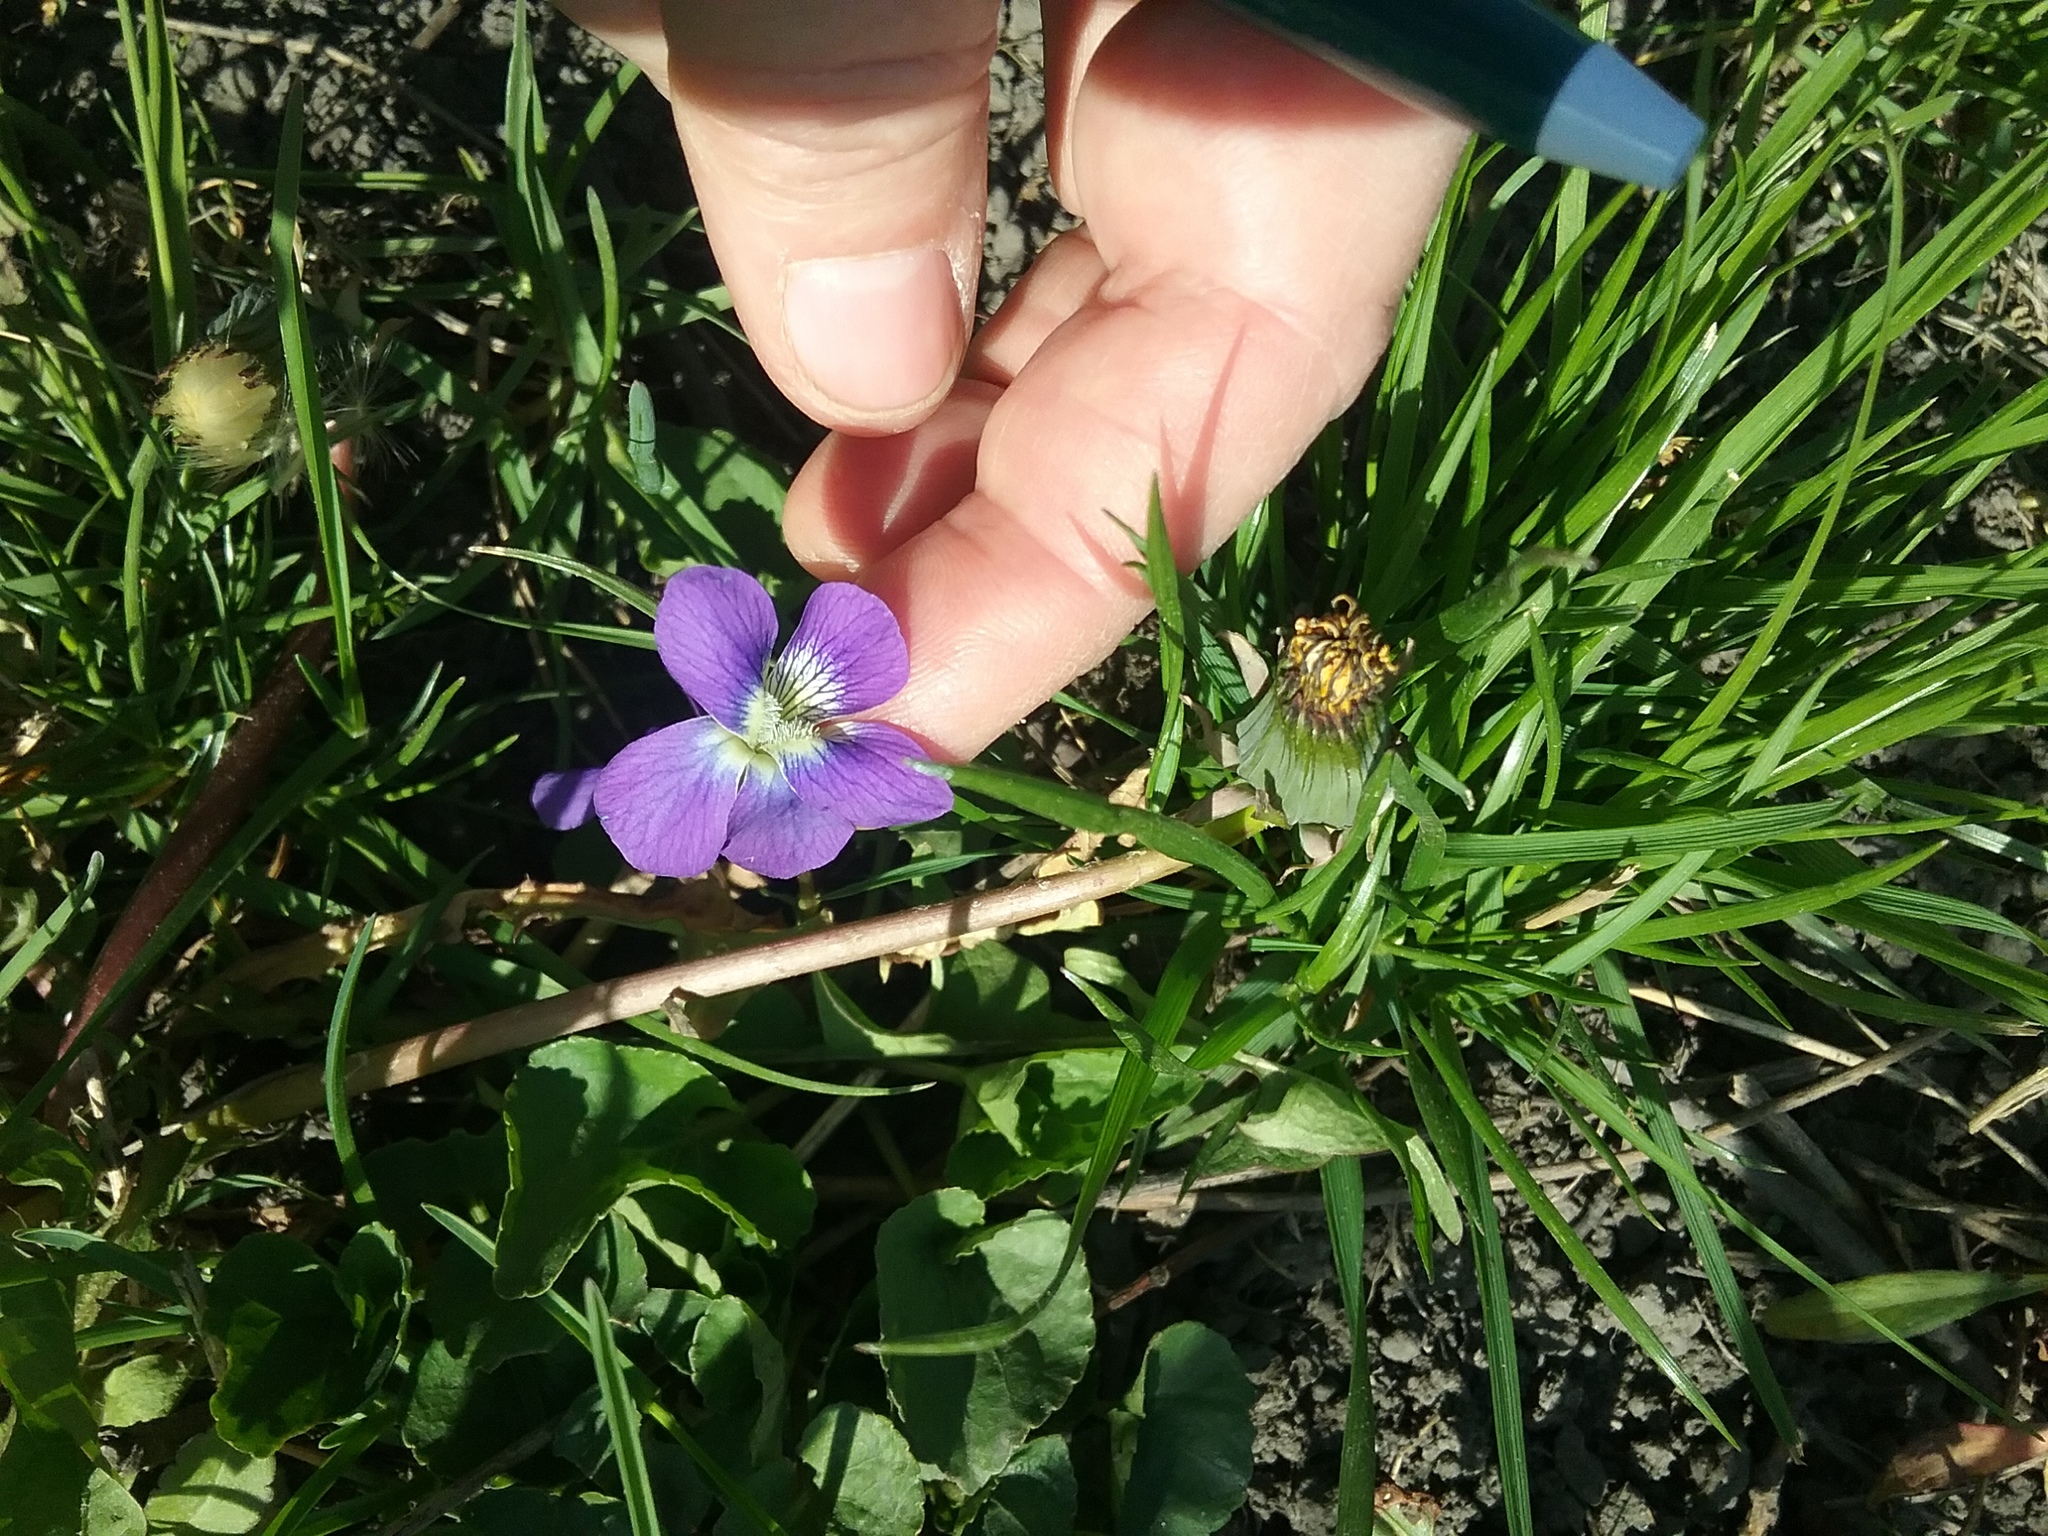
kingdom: Plantae
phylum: Tracheophyta
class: Magnoliopsida
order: Malpighiales
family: Violaceae
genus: Viola
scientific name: Viola sororia
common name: Dooryard violet
